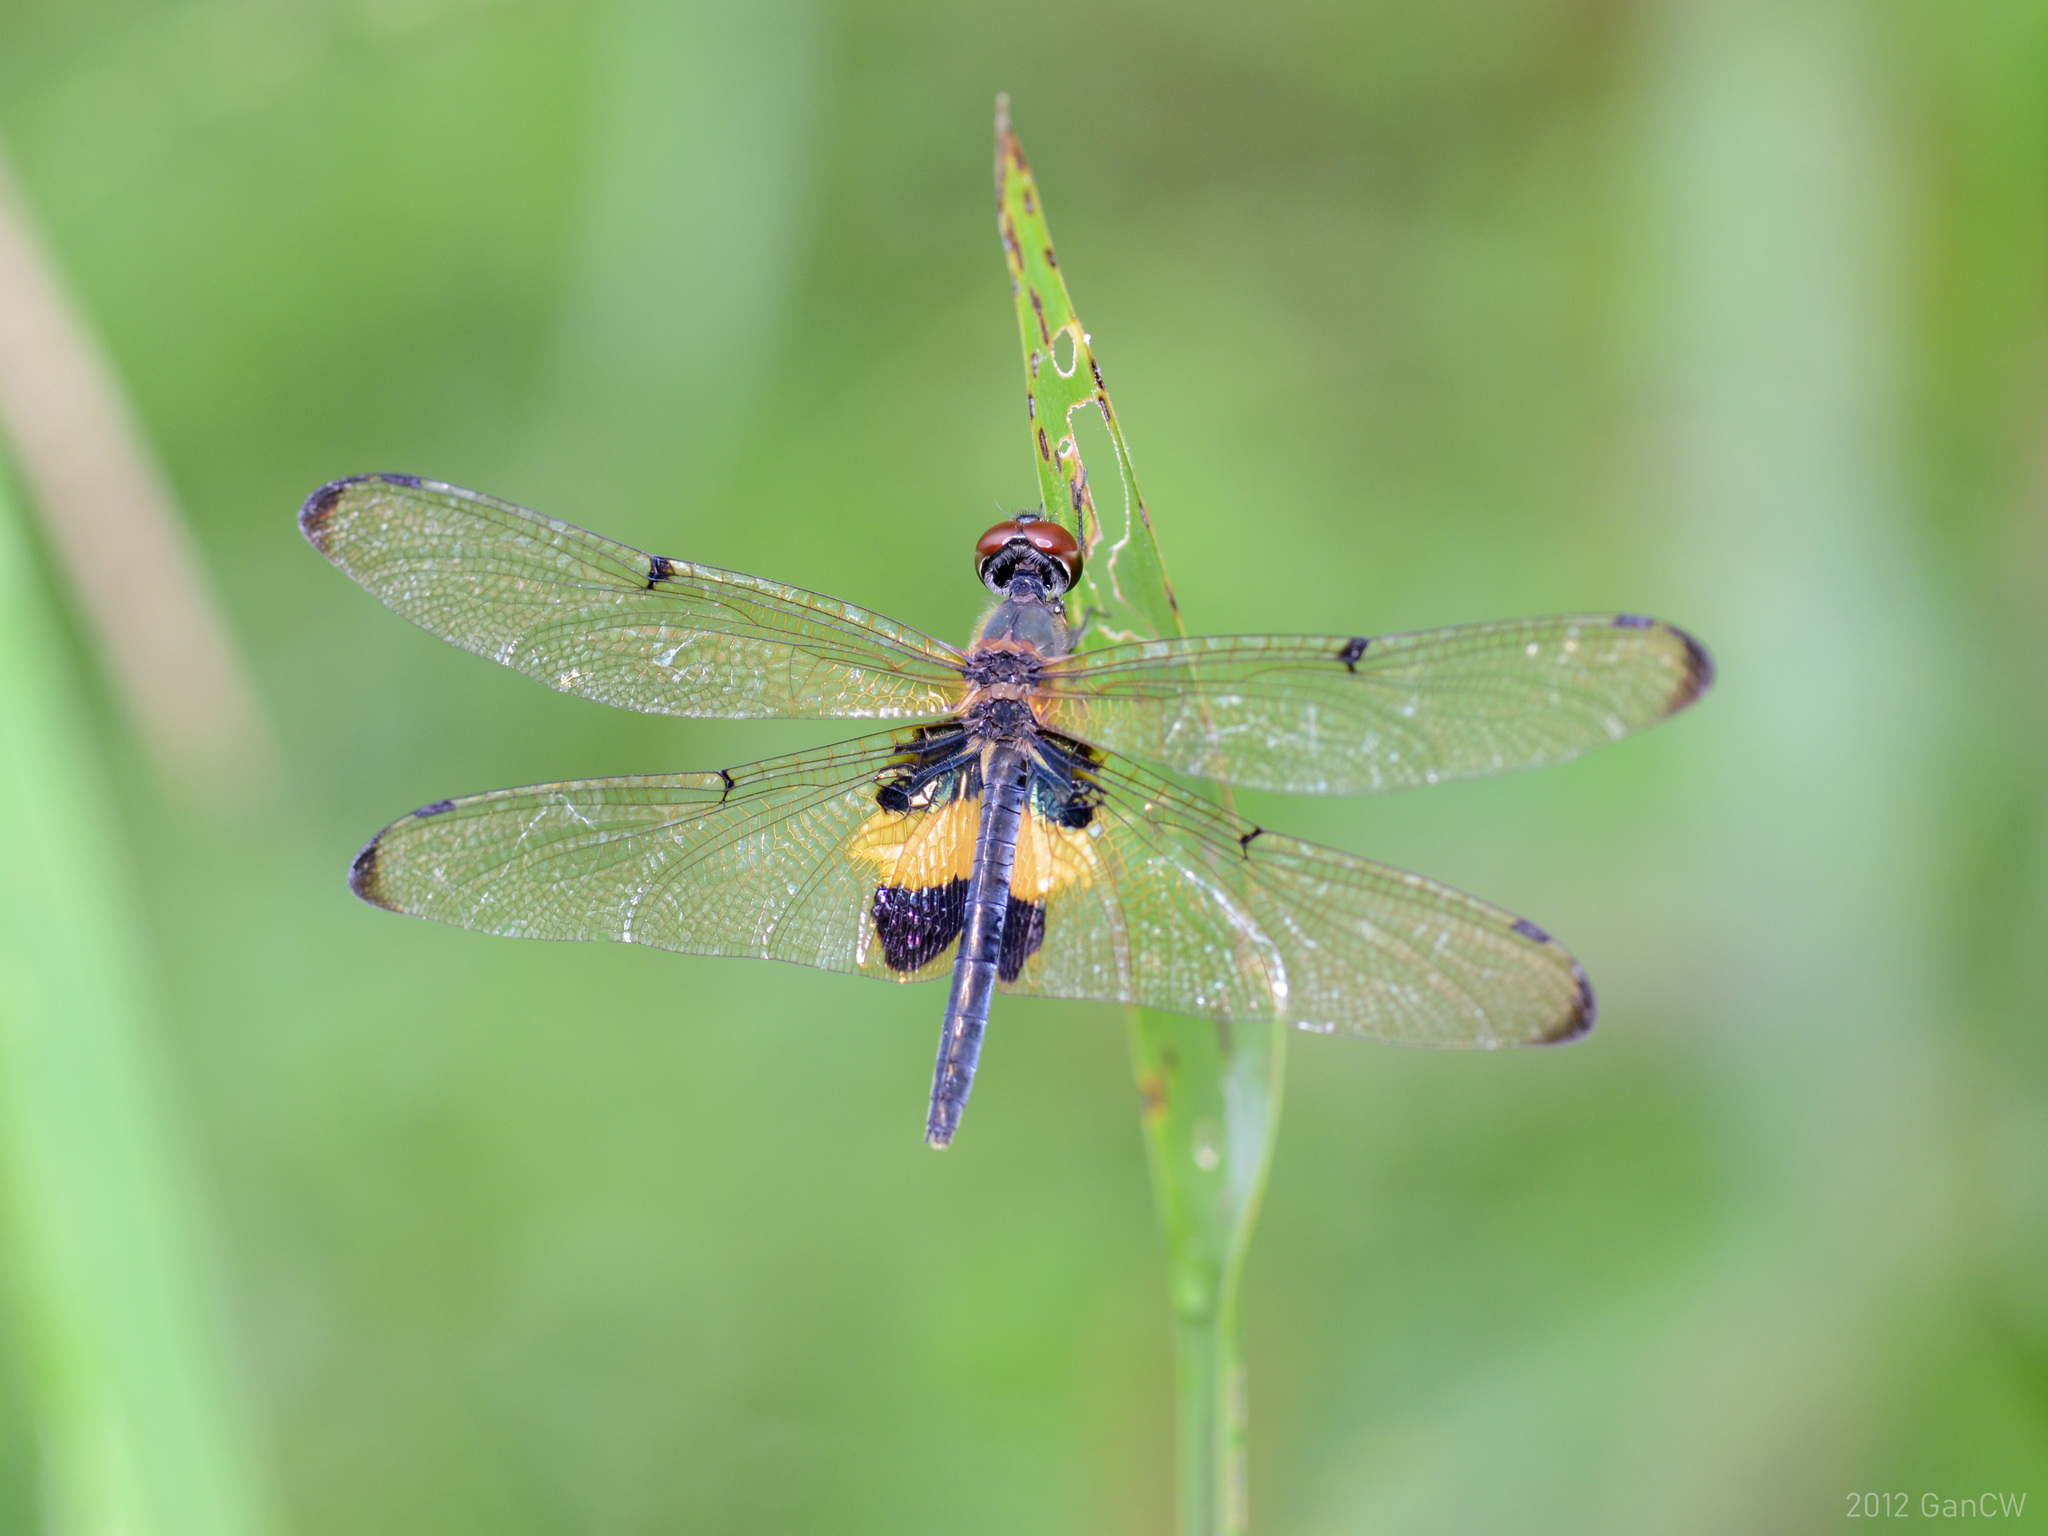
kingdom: Animalia
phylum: Arthropoda
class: Insecta
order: Odonata
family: Libellulidae
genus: Rhyothemis
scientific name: Rhyothemis phyllis
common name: Yellow-barred flutterer
